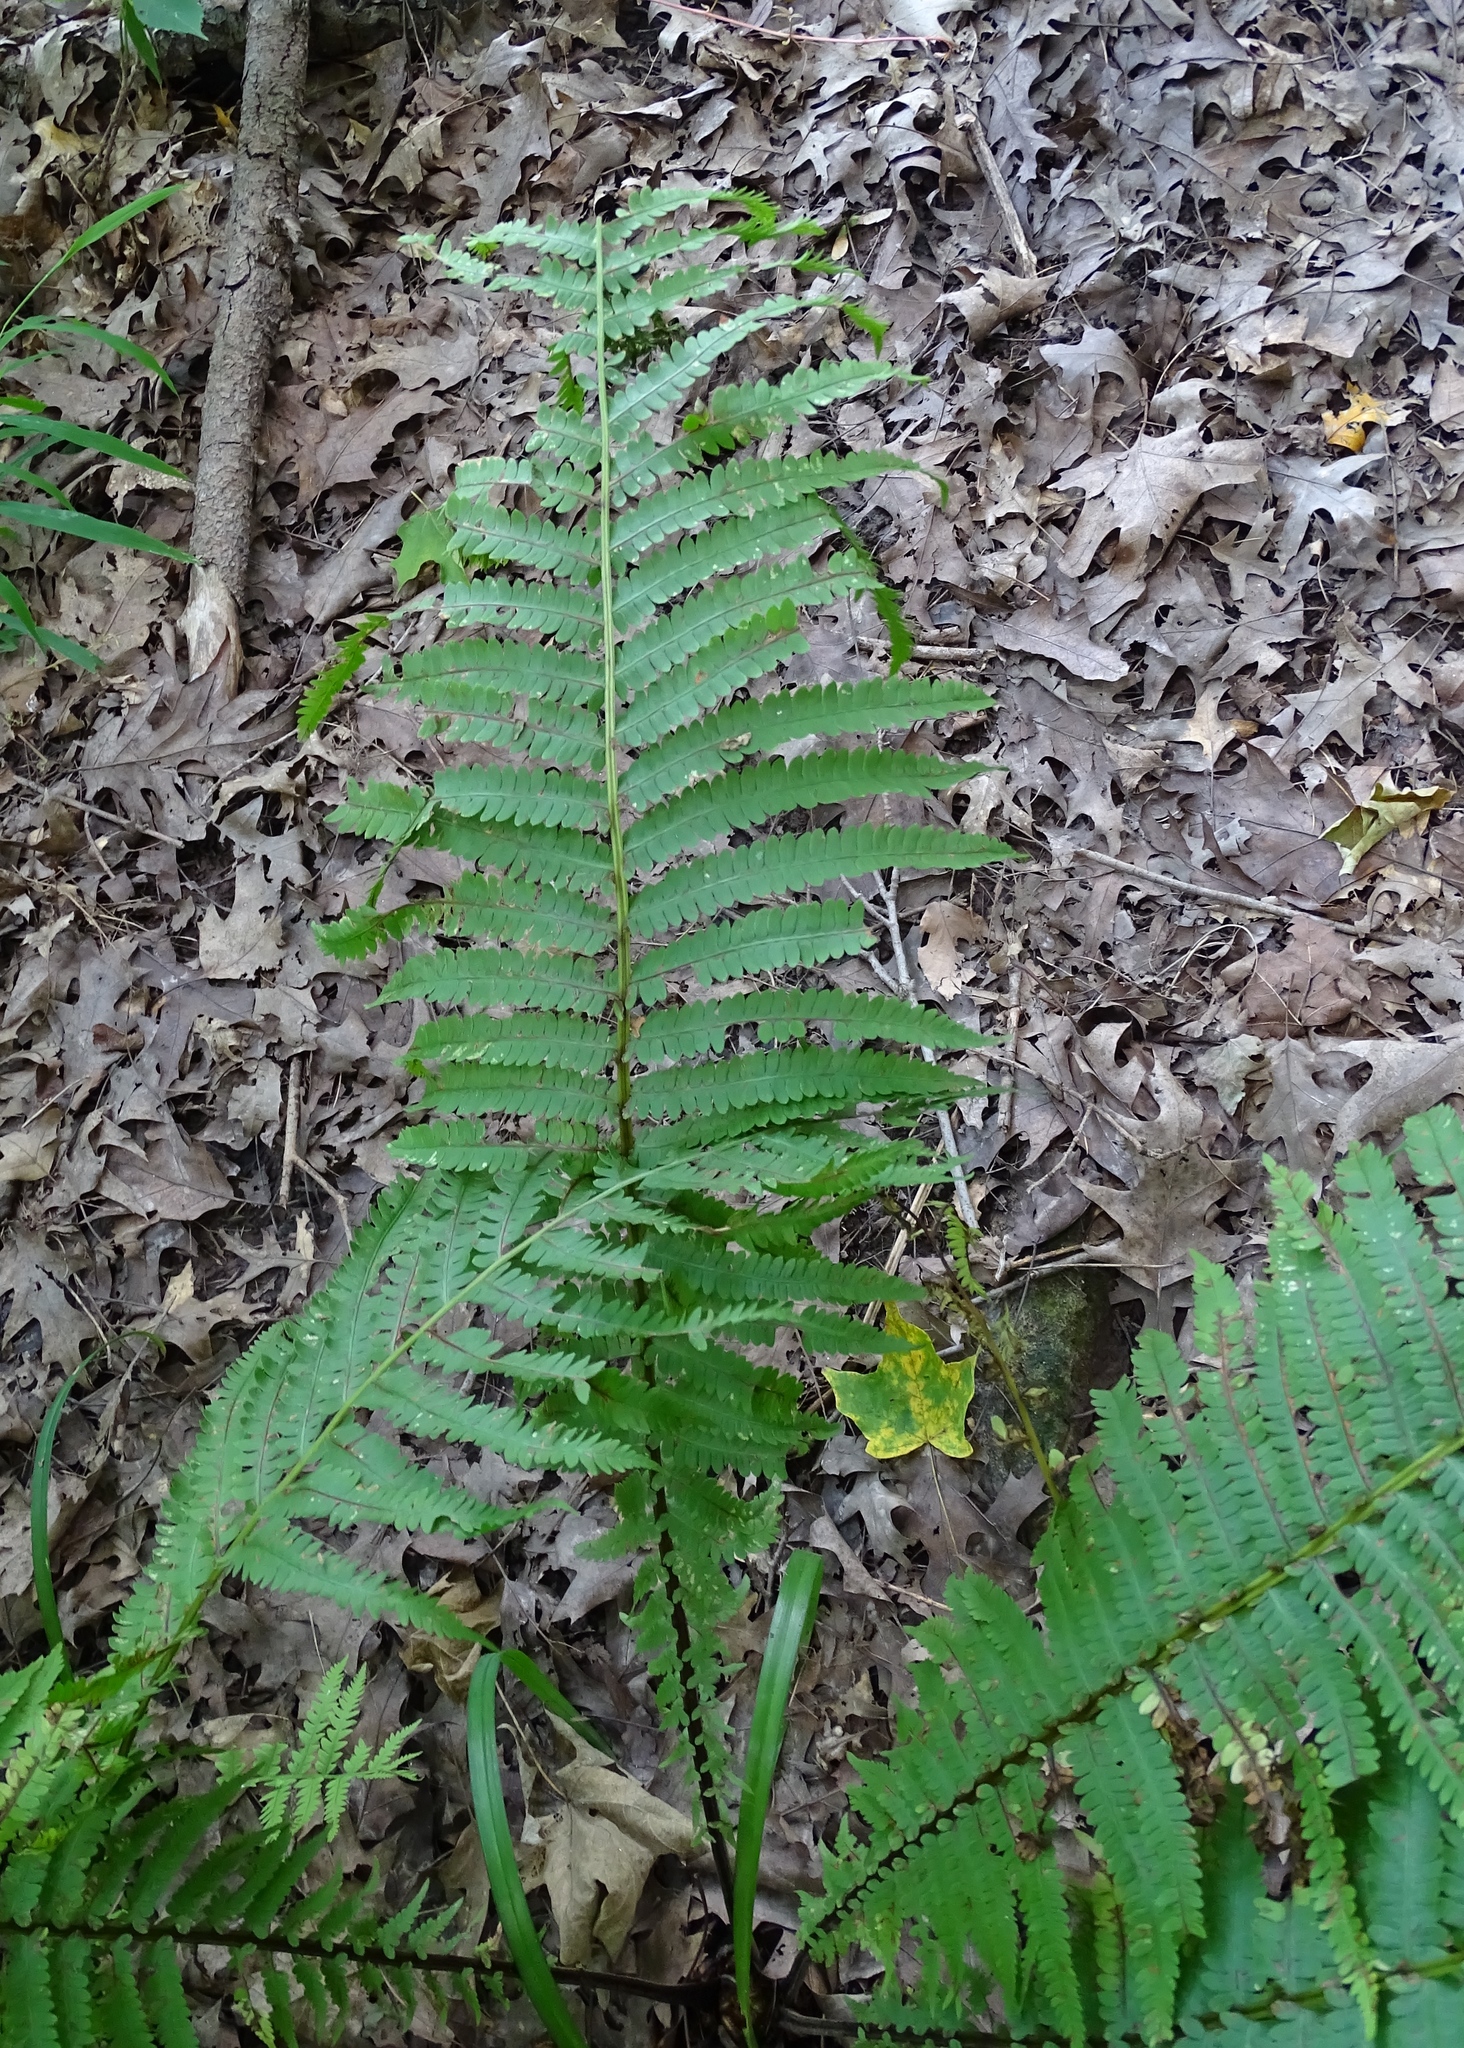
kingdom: Plantae
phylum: Tracheophyta
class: Polypodiopsida
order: Polypodiales
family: Onocleaceae
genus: Matteuccia
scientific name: Matteuccia struthiopteris
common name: Ostrich fern
